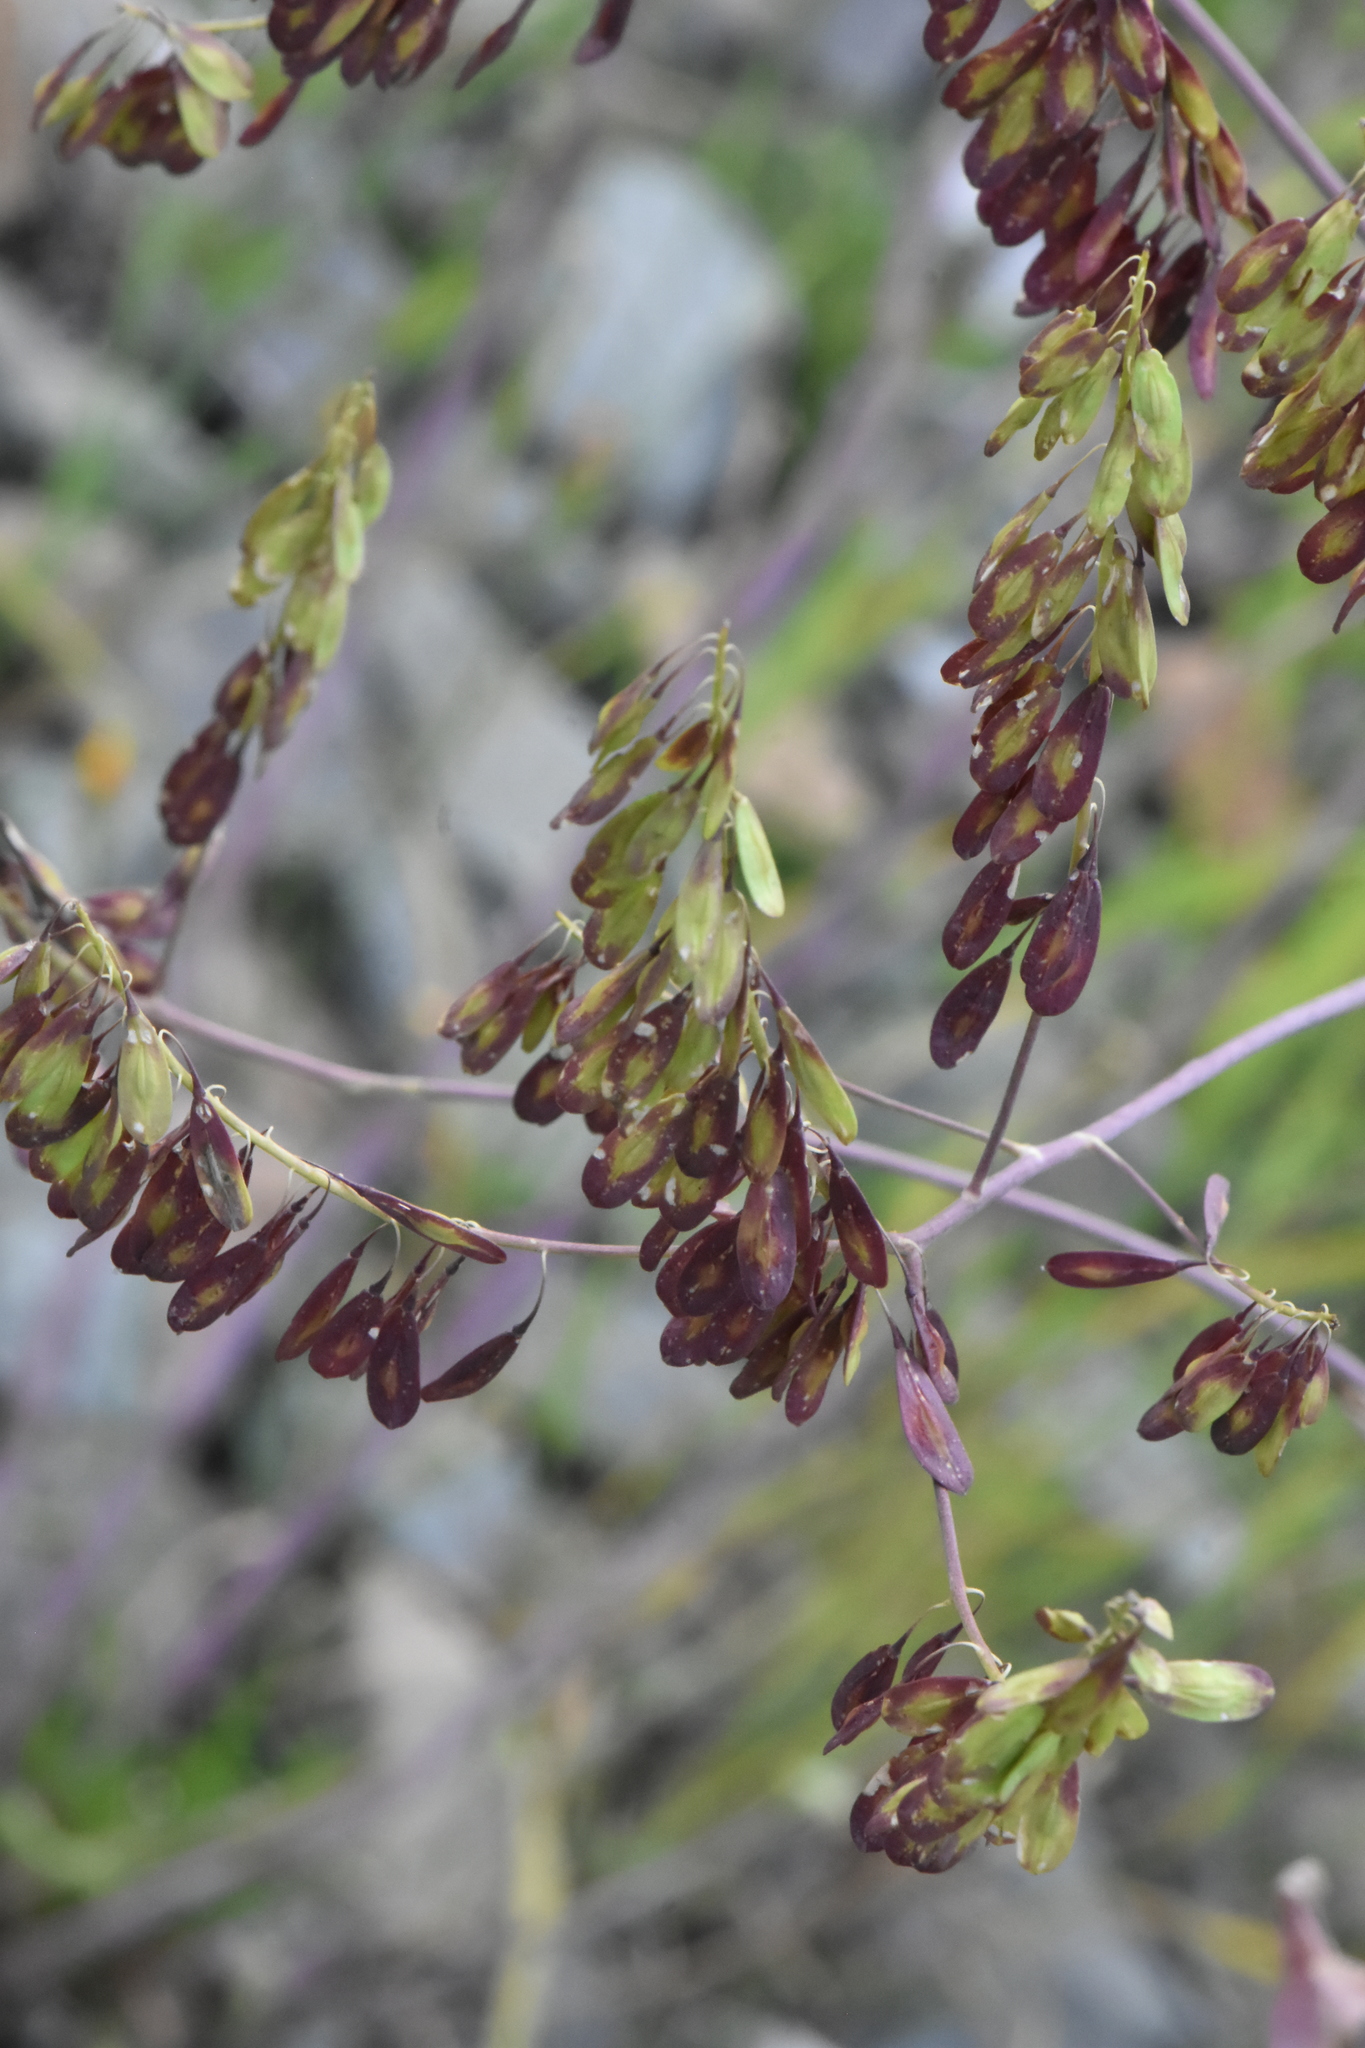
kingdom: Plantae
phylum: Tracheophyta
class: Magnoliopsida
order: Brassicales
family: Brassicaceae
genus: Isatis
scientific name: Isatis costata
